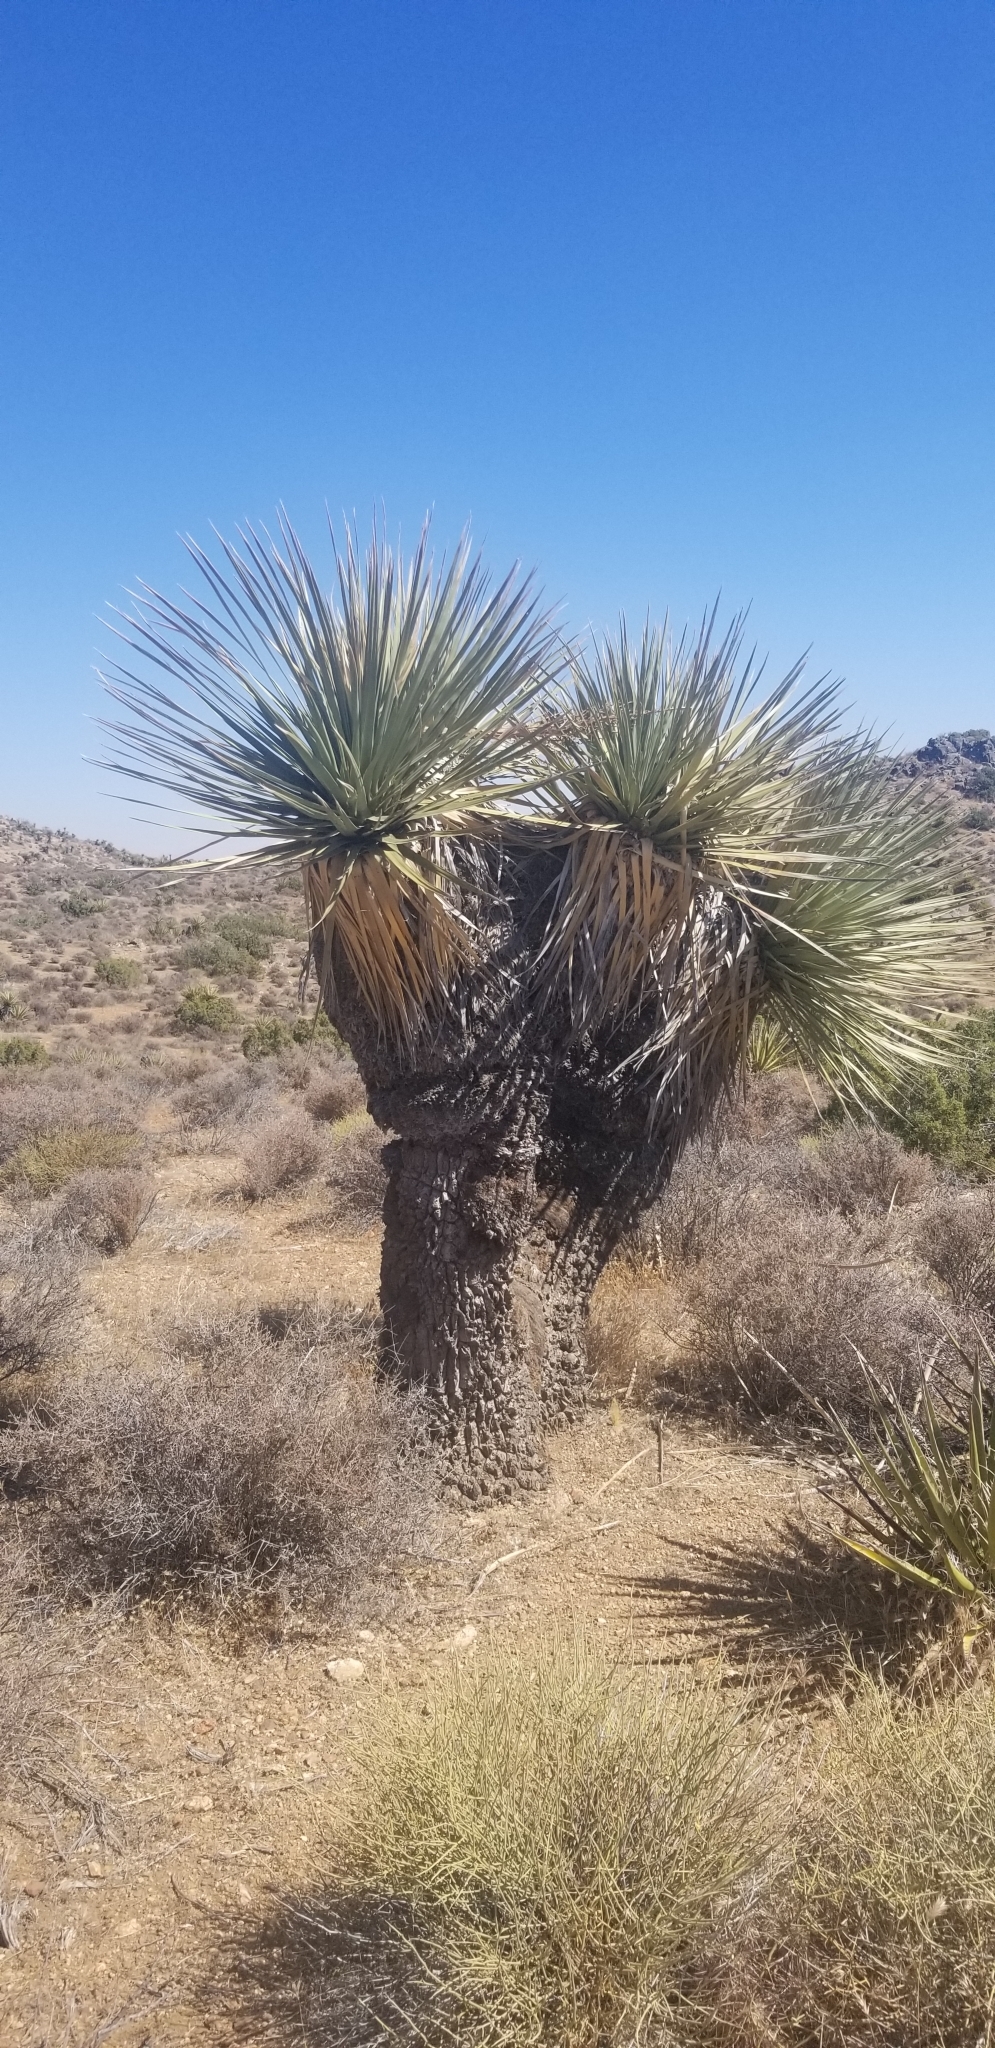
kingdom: Plantae
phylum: Tracheophyta
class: Liliopsida
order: Asparagales
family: Asparagaceae
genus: Nolina
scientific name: Nolina parryi
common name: Parry nolina
